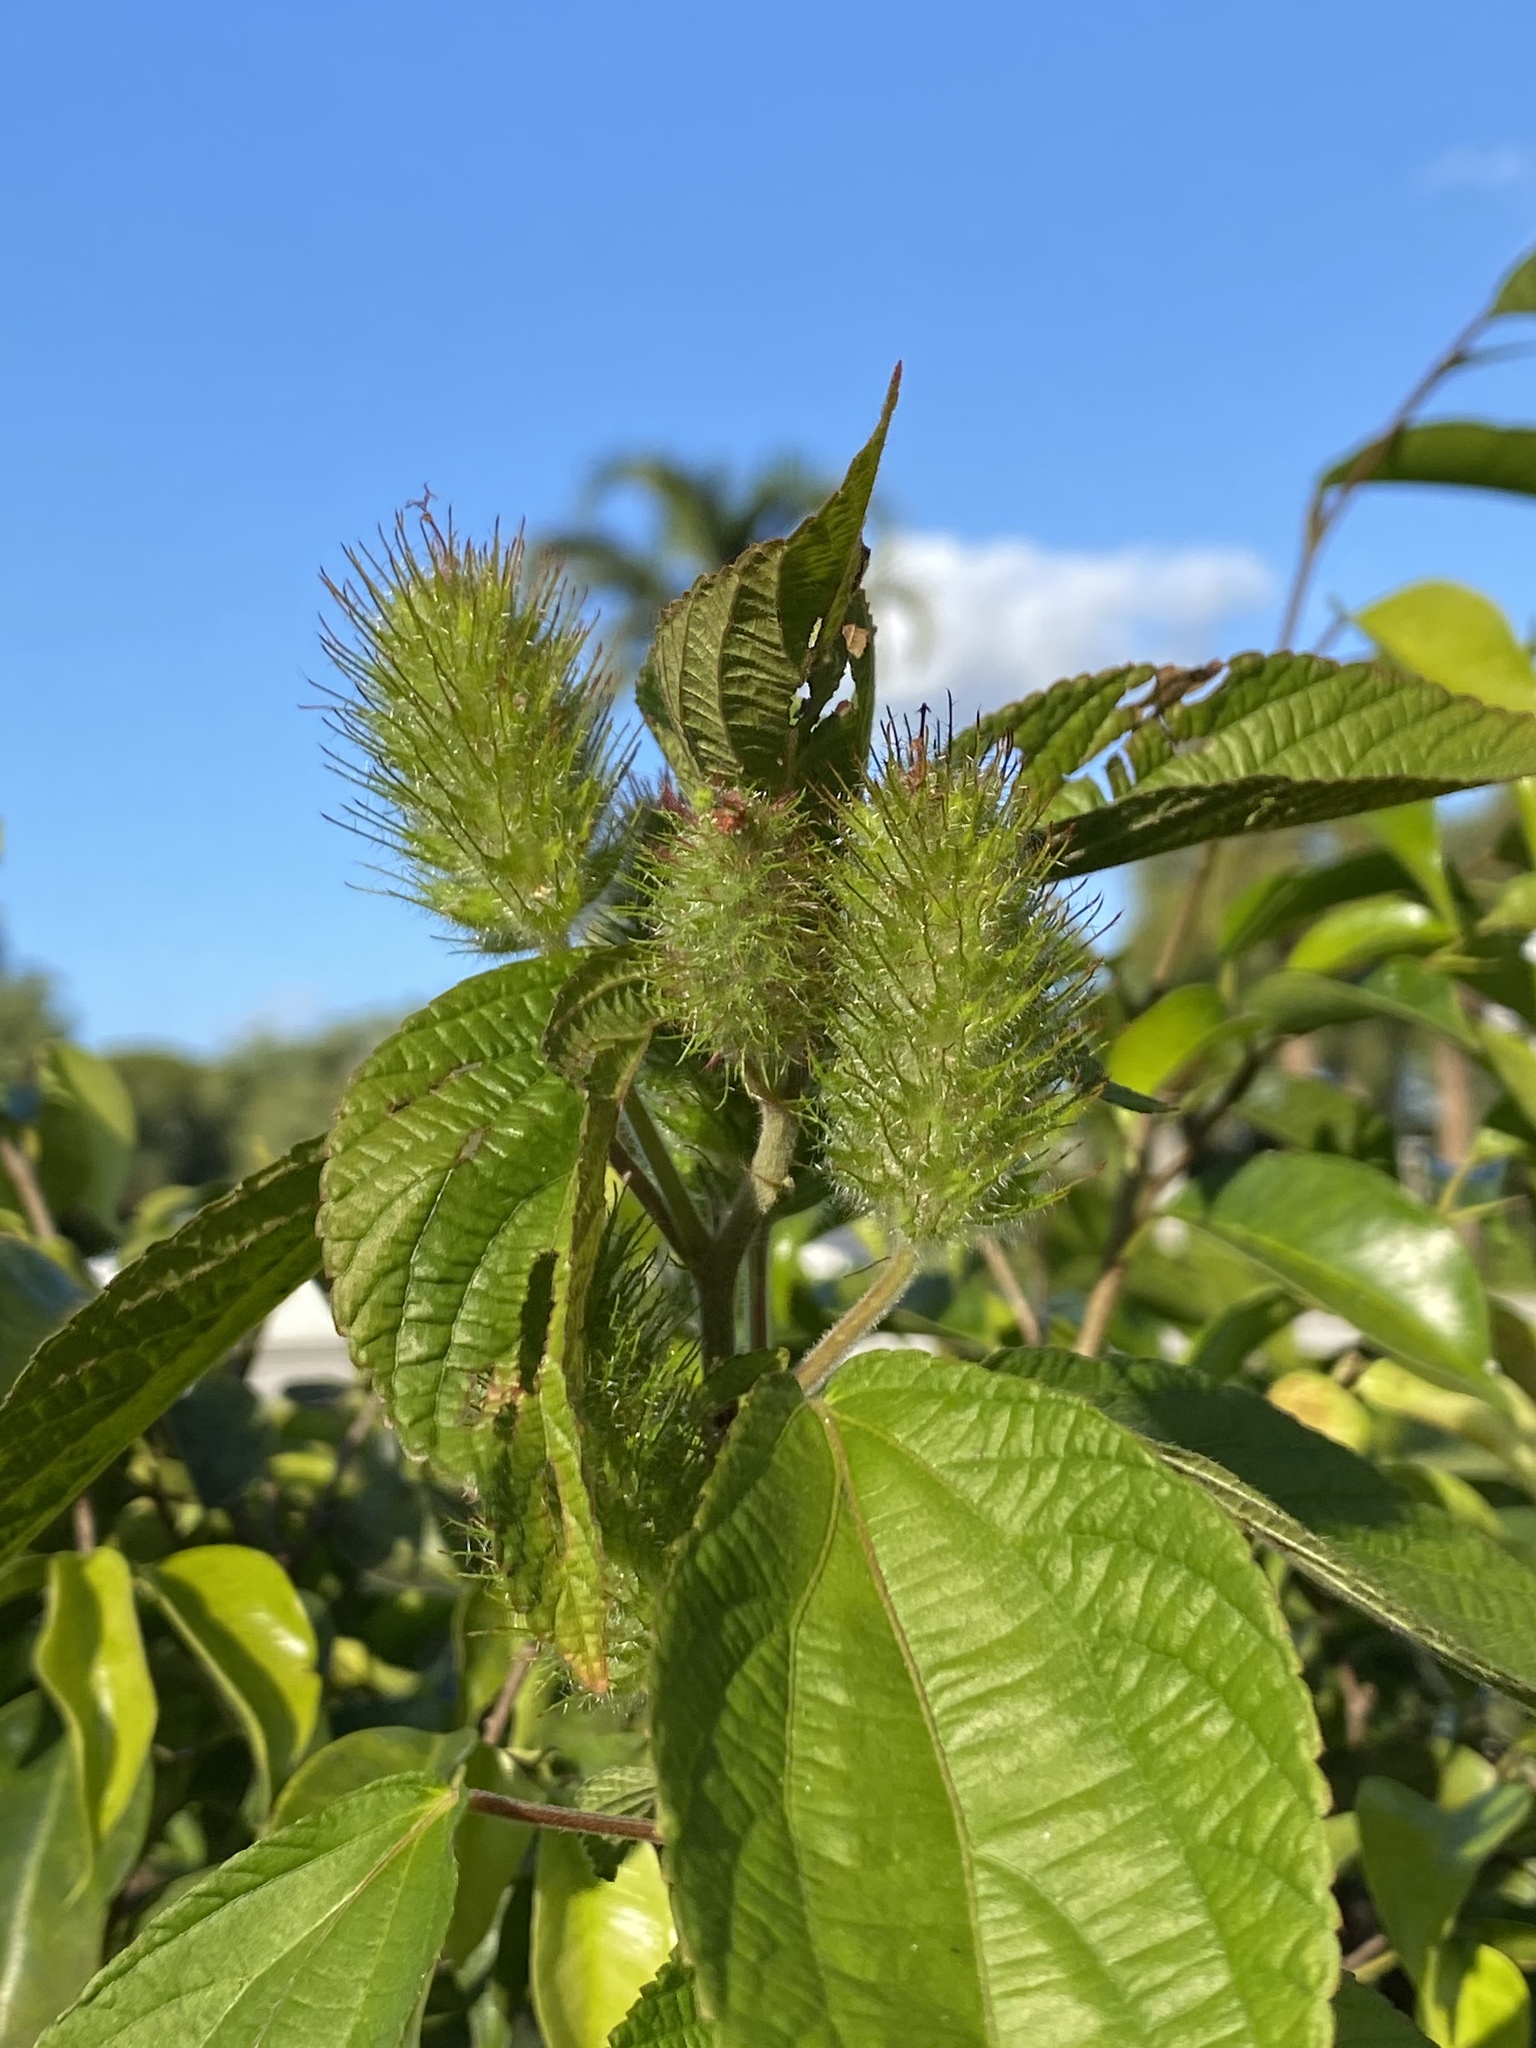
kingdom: Plantae
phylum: Tracheophyta
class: Magnoliopsida
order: Malpighiales
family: Euphorbiaceae
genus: Acalypha
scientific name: Acalypha arvensis
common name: Field copperleaf
